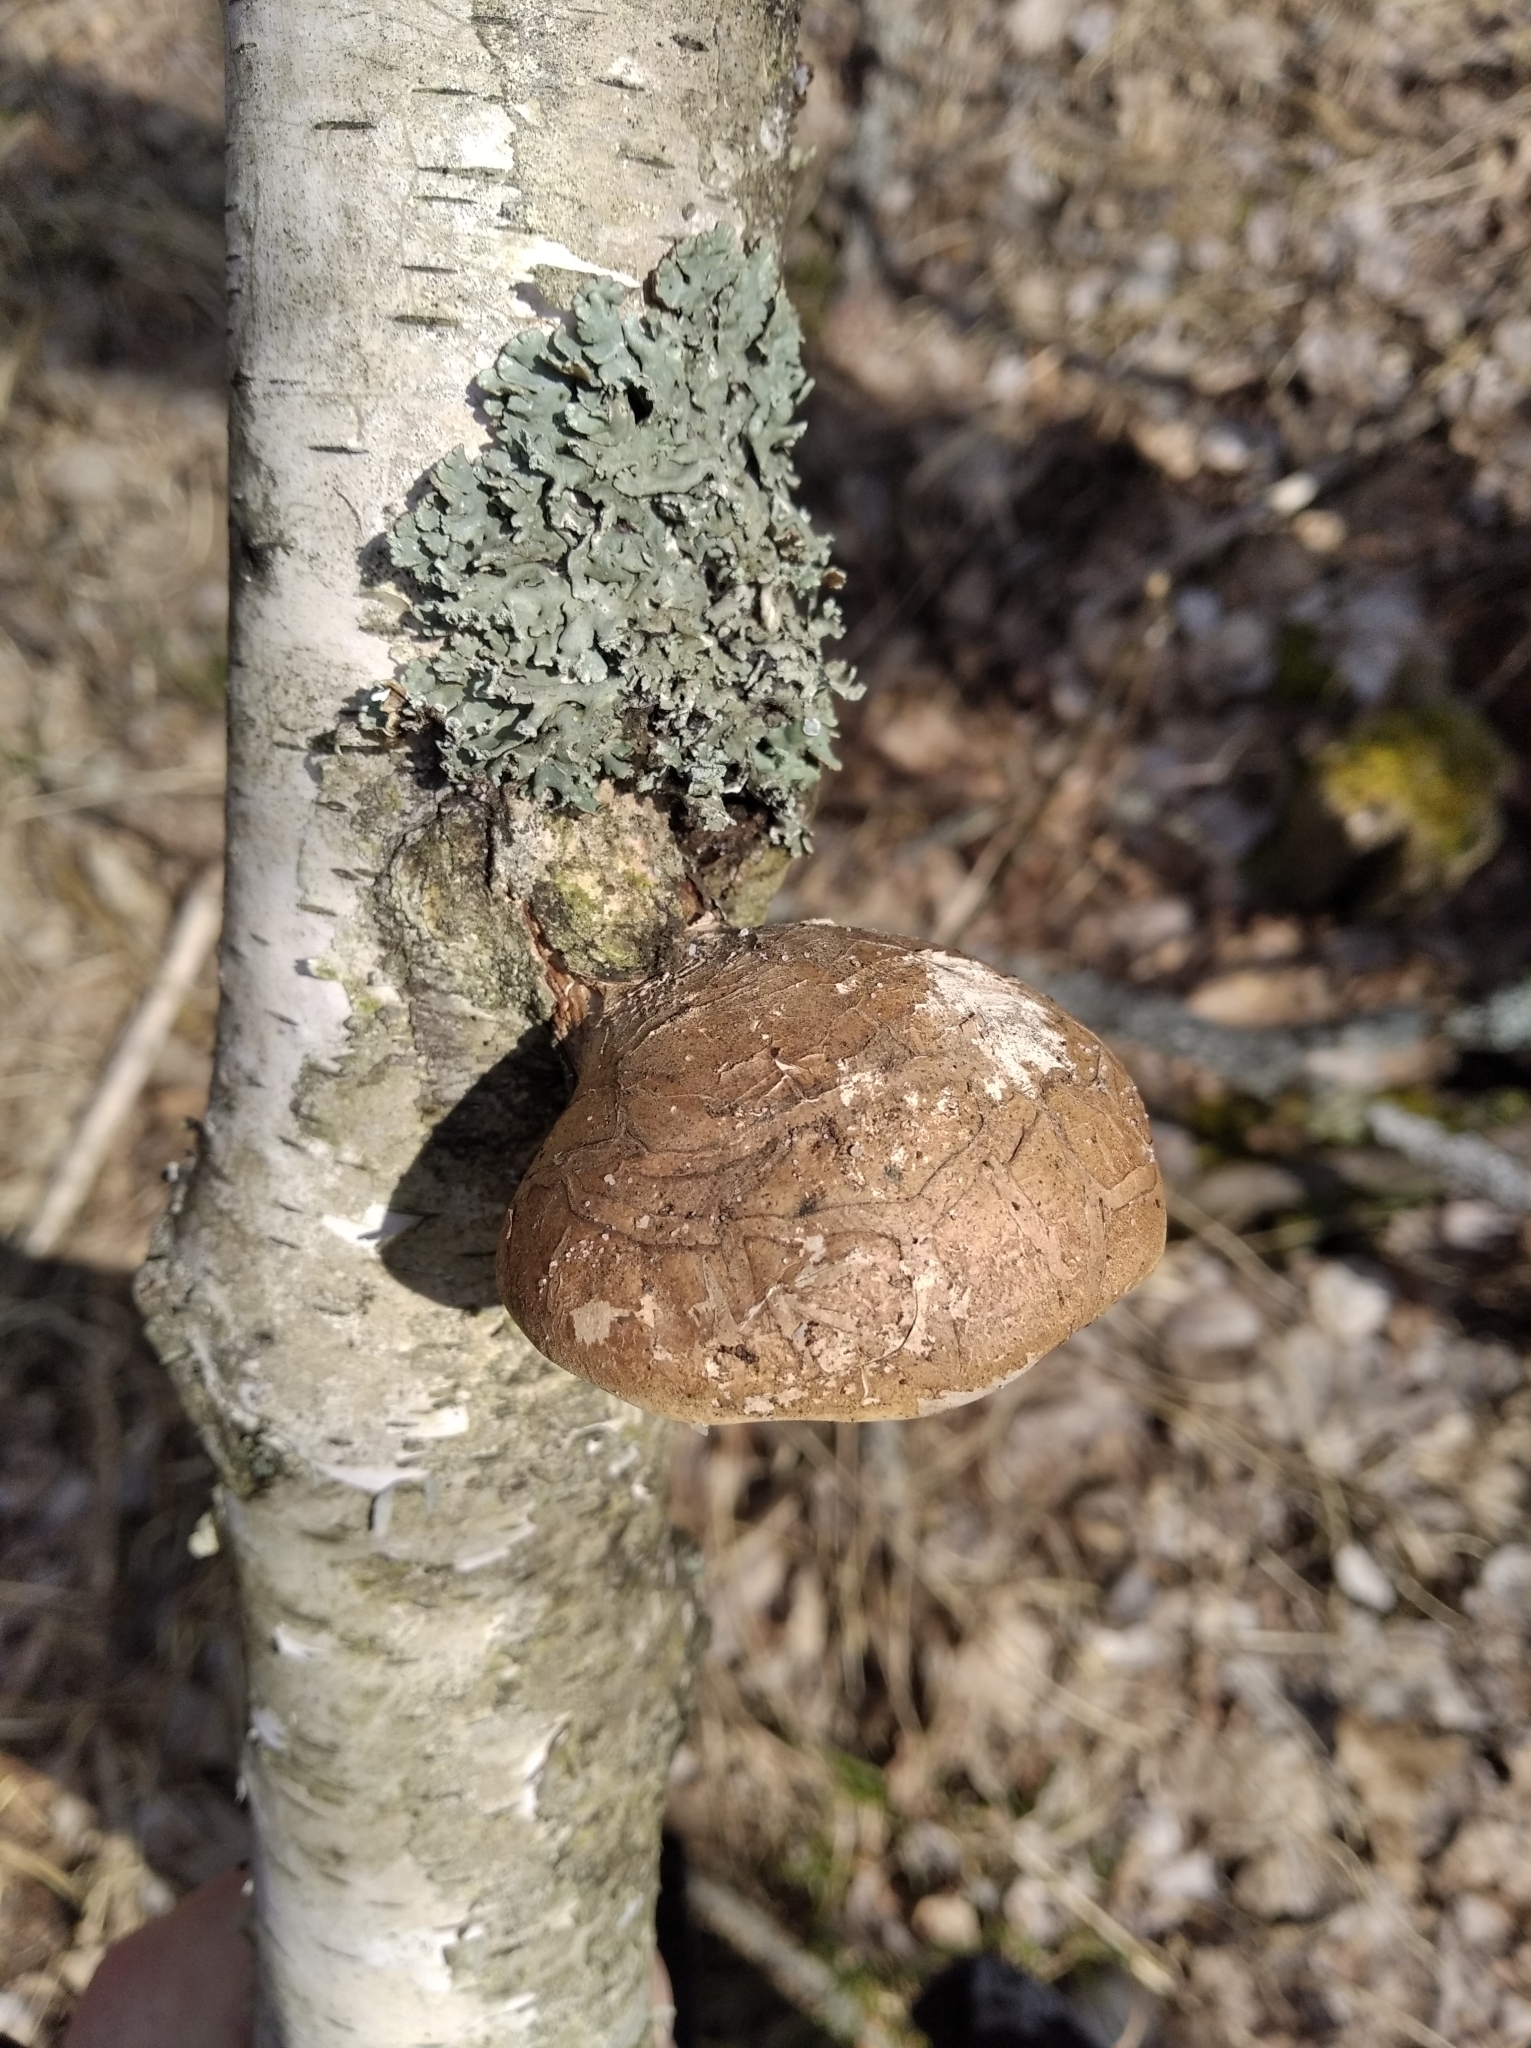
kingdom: Fungi
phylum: Basidiomycota
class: Agaricomycetes
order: Polyporales
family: Fomitopsidaceae
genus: Fomitopsis
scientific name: Fomitopsis betulina
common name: Birch polypore
